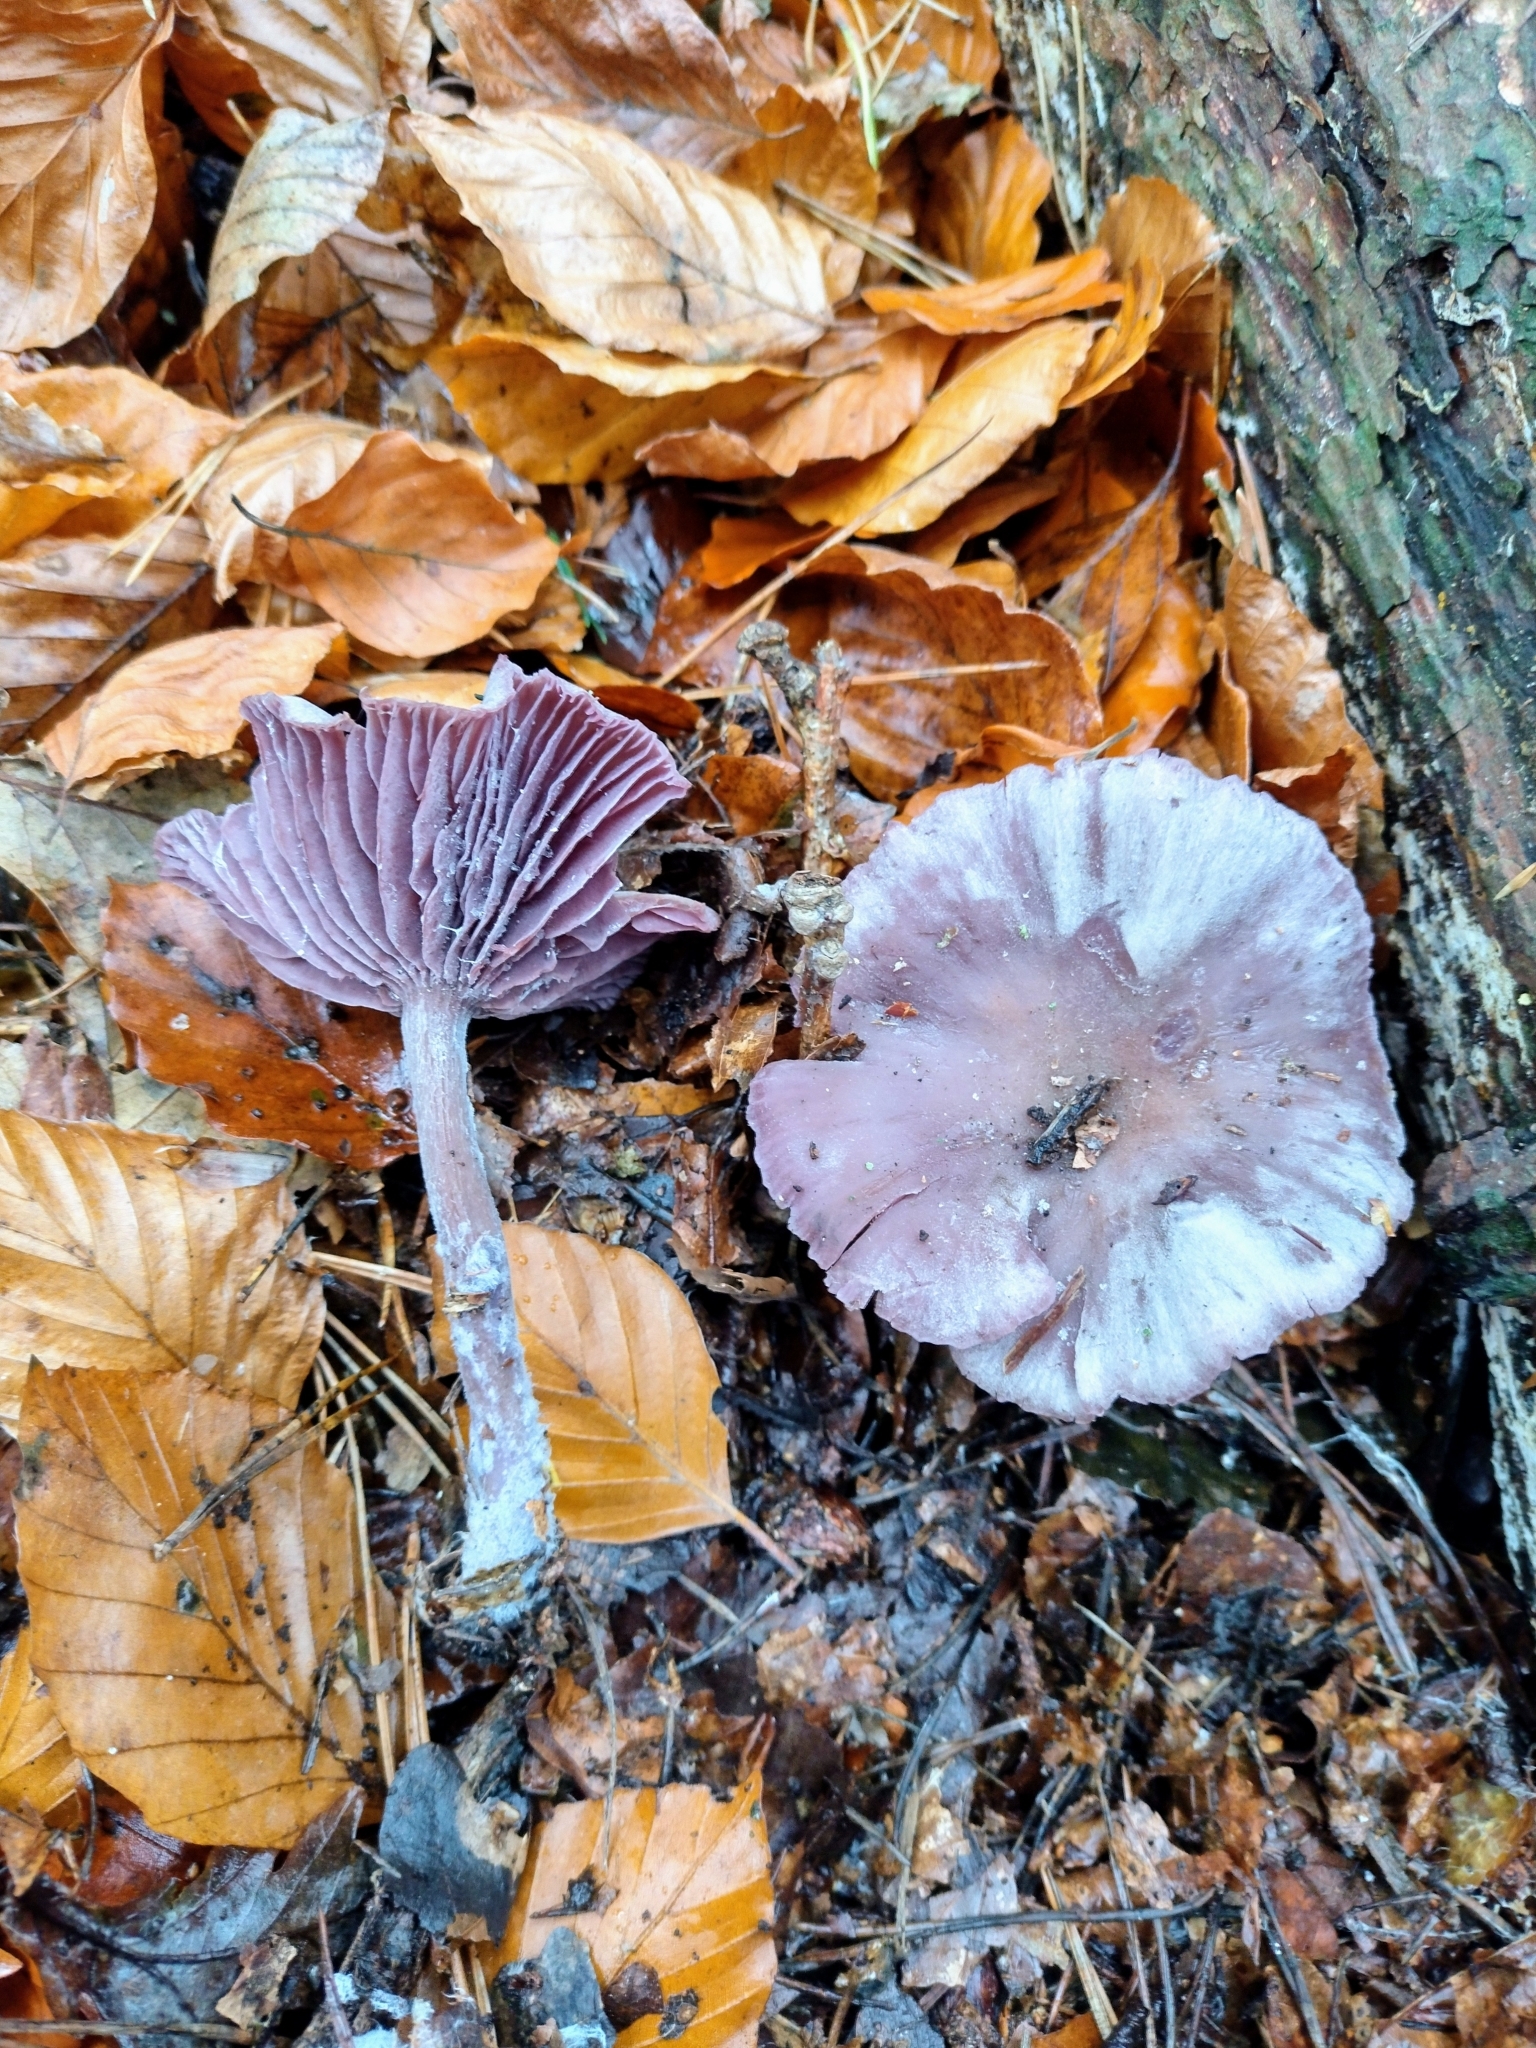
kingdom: Fungi
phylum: Basidiomycota
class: Agaricomycetes
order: Agaricales
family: Hydnangiaceae
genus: Laccaria
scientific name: Laccaria amethystina
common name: Amethyst deceiver
